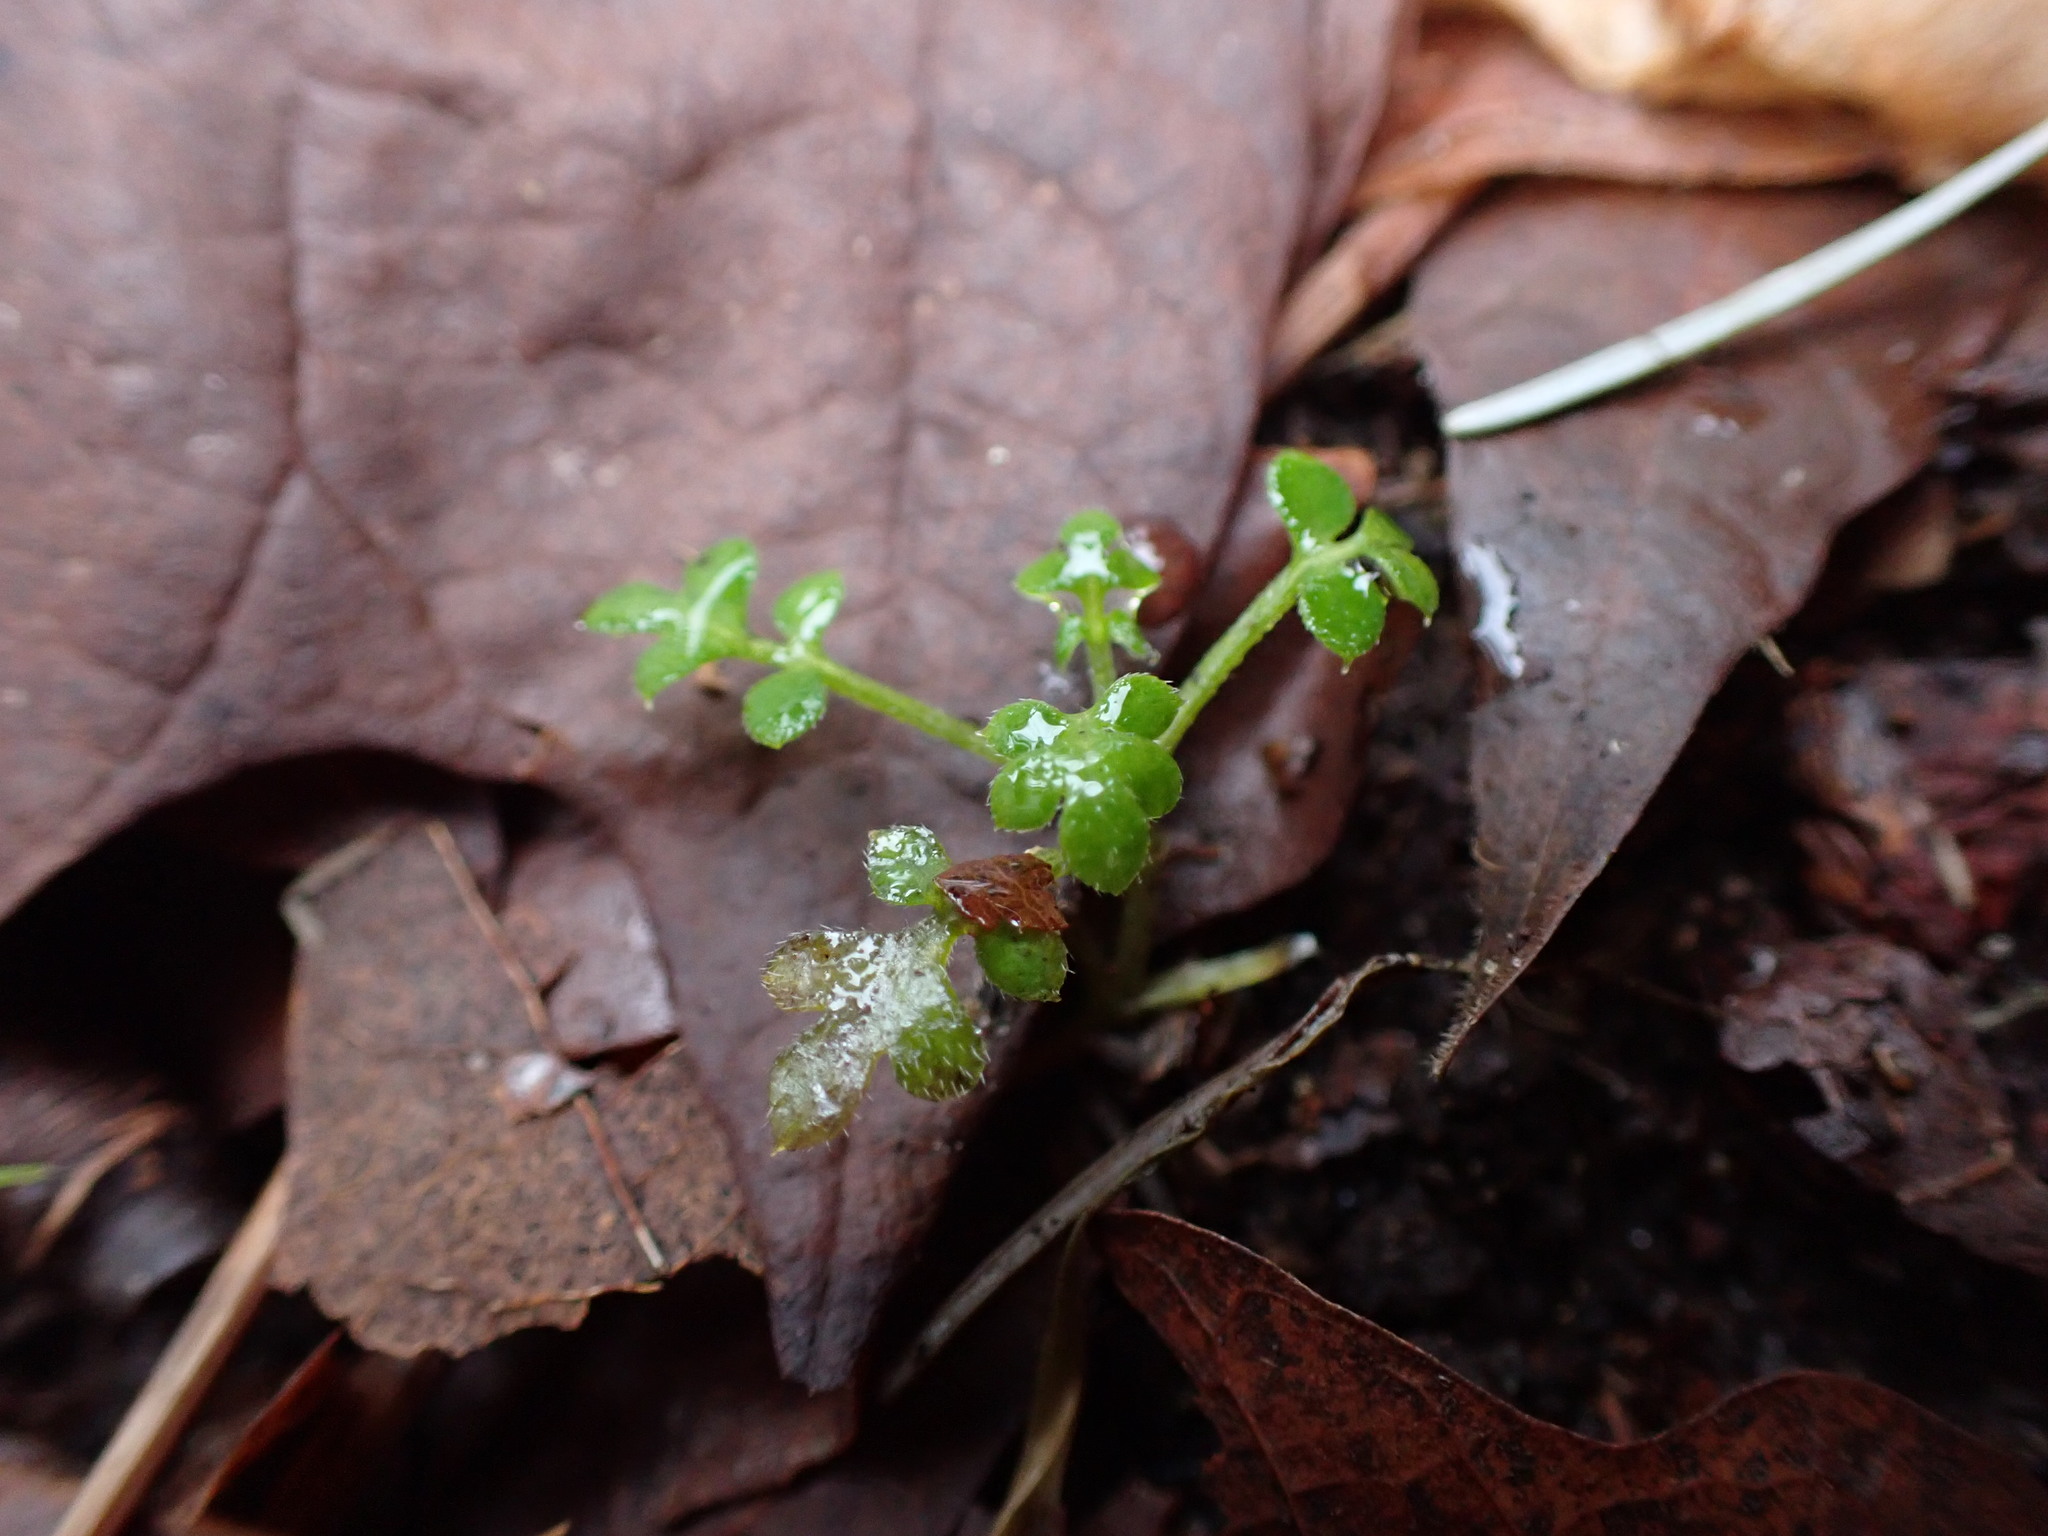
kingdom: Plantae
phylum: Tracheophyta
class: Magnoliopsida
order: Boraginales
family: Hydrophyllaceae
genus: Nemophila
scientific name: Nemophila parviflora
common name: Small-flowered baby-blue-eyes
